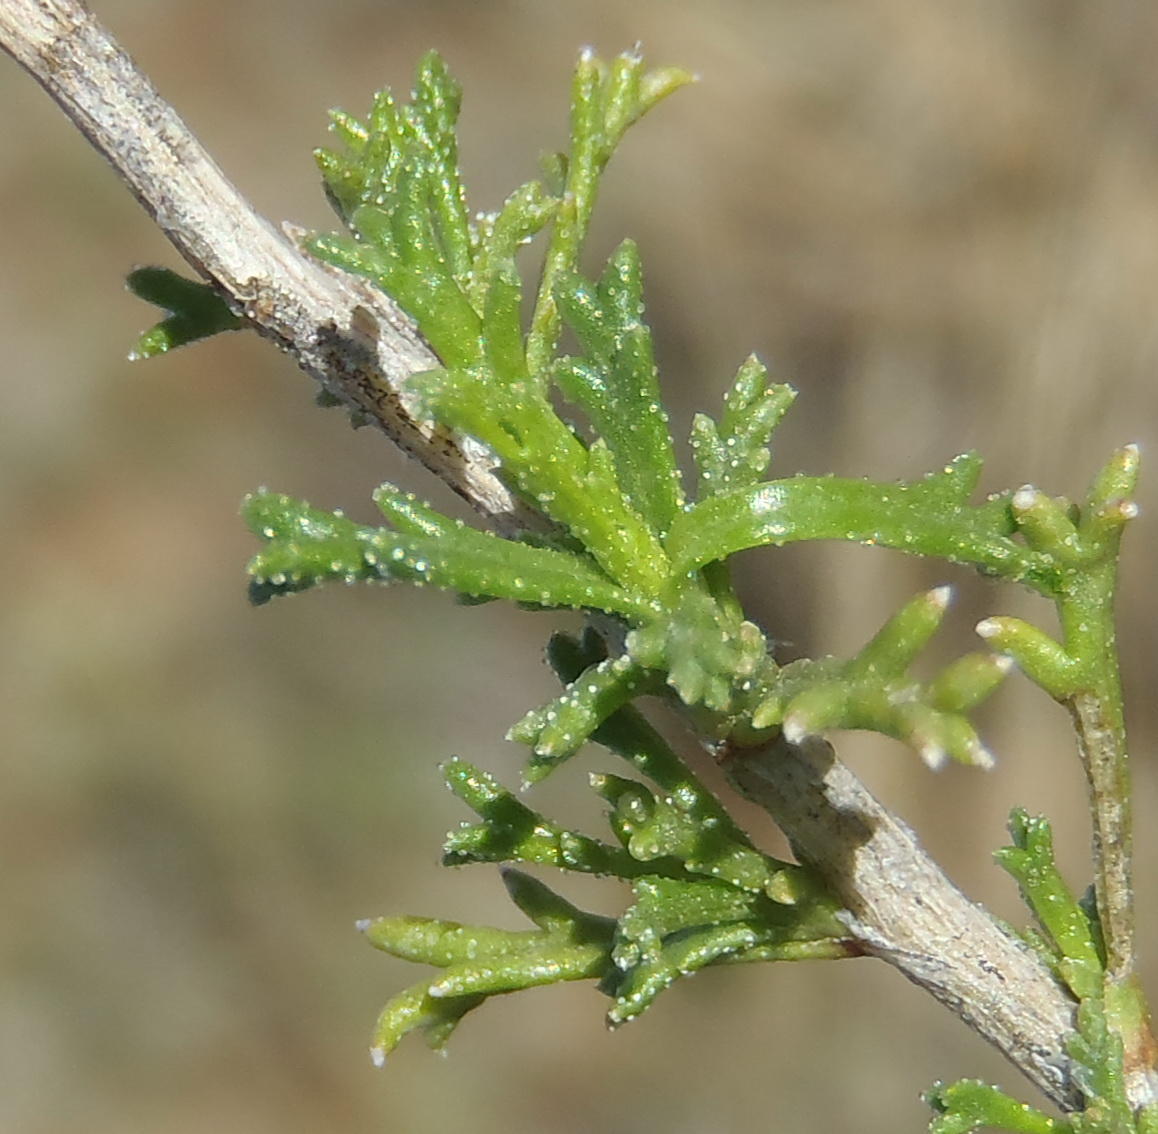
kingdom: Plantae
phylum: Tracheophyta
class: Magnoliopsida
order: Asterales
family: Asteraceae
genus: Osteospermum
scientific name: Osteospermum leptolobum
